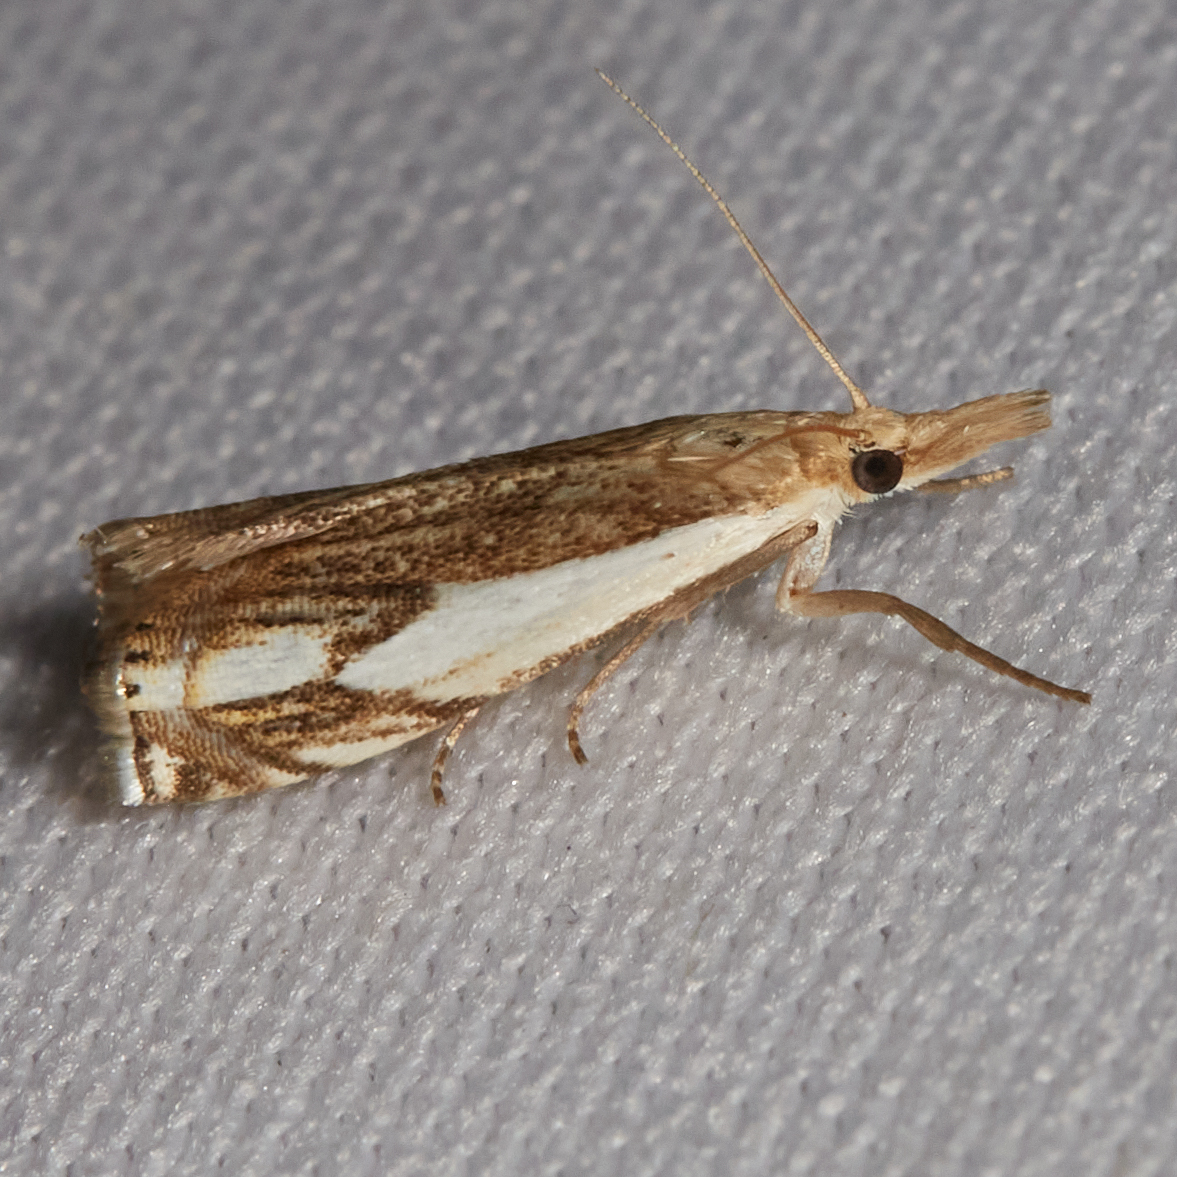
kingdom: Animalia
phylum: Arthropoda
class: Insecta
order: Lepidoptera
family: Crambidae
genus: Crambus
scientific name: Crambus agitatellus
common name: Double-banded grass-veneer
